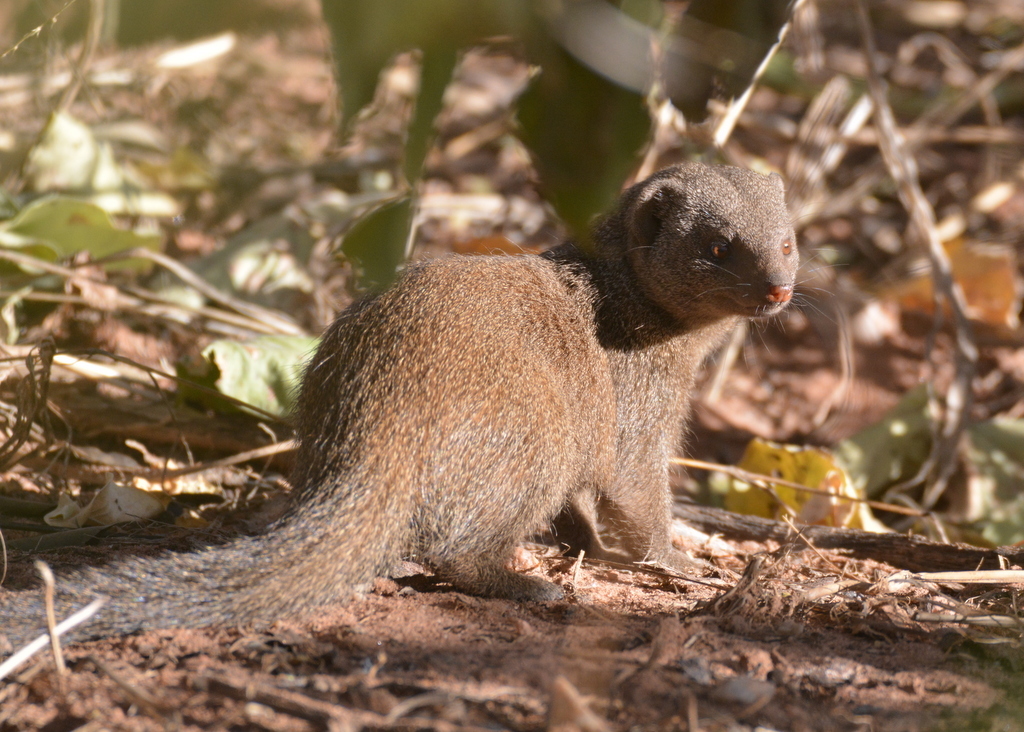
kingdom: Animalia
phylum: Chordata
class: Mammalia
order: Carnivora
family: Herpestidae
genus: Helogale
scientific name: Helogale parvula
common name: Common dwarf mongoose
